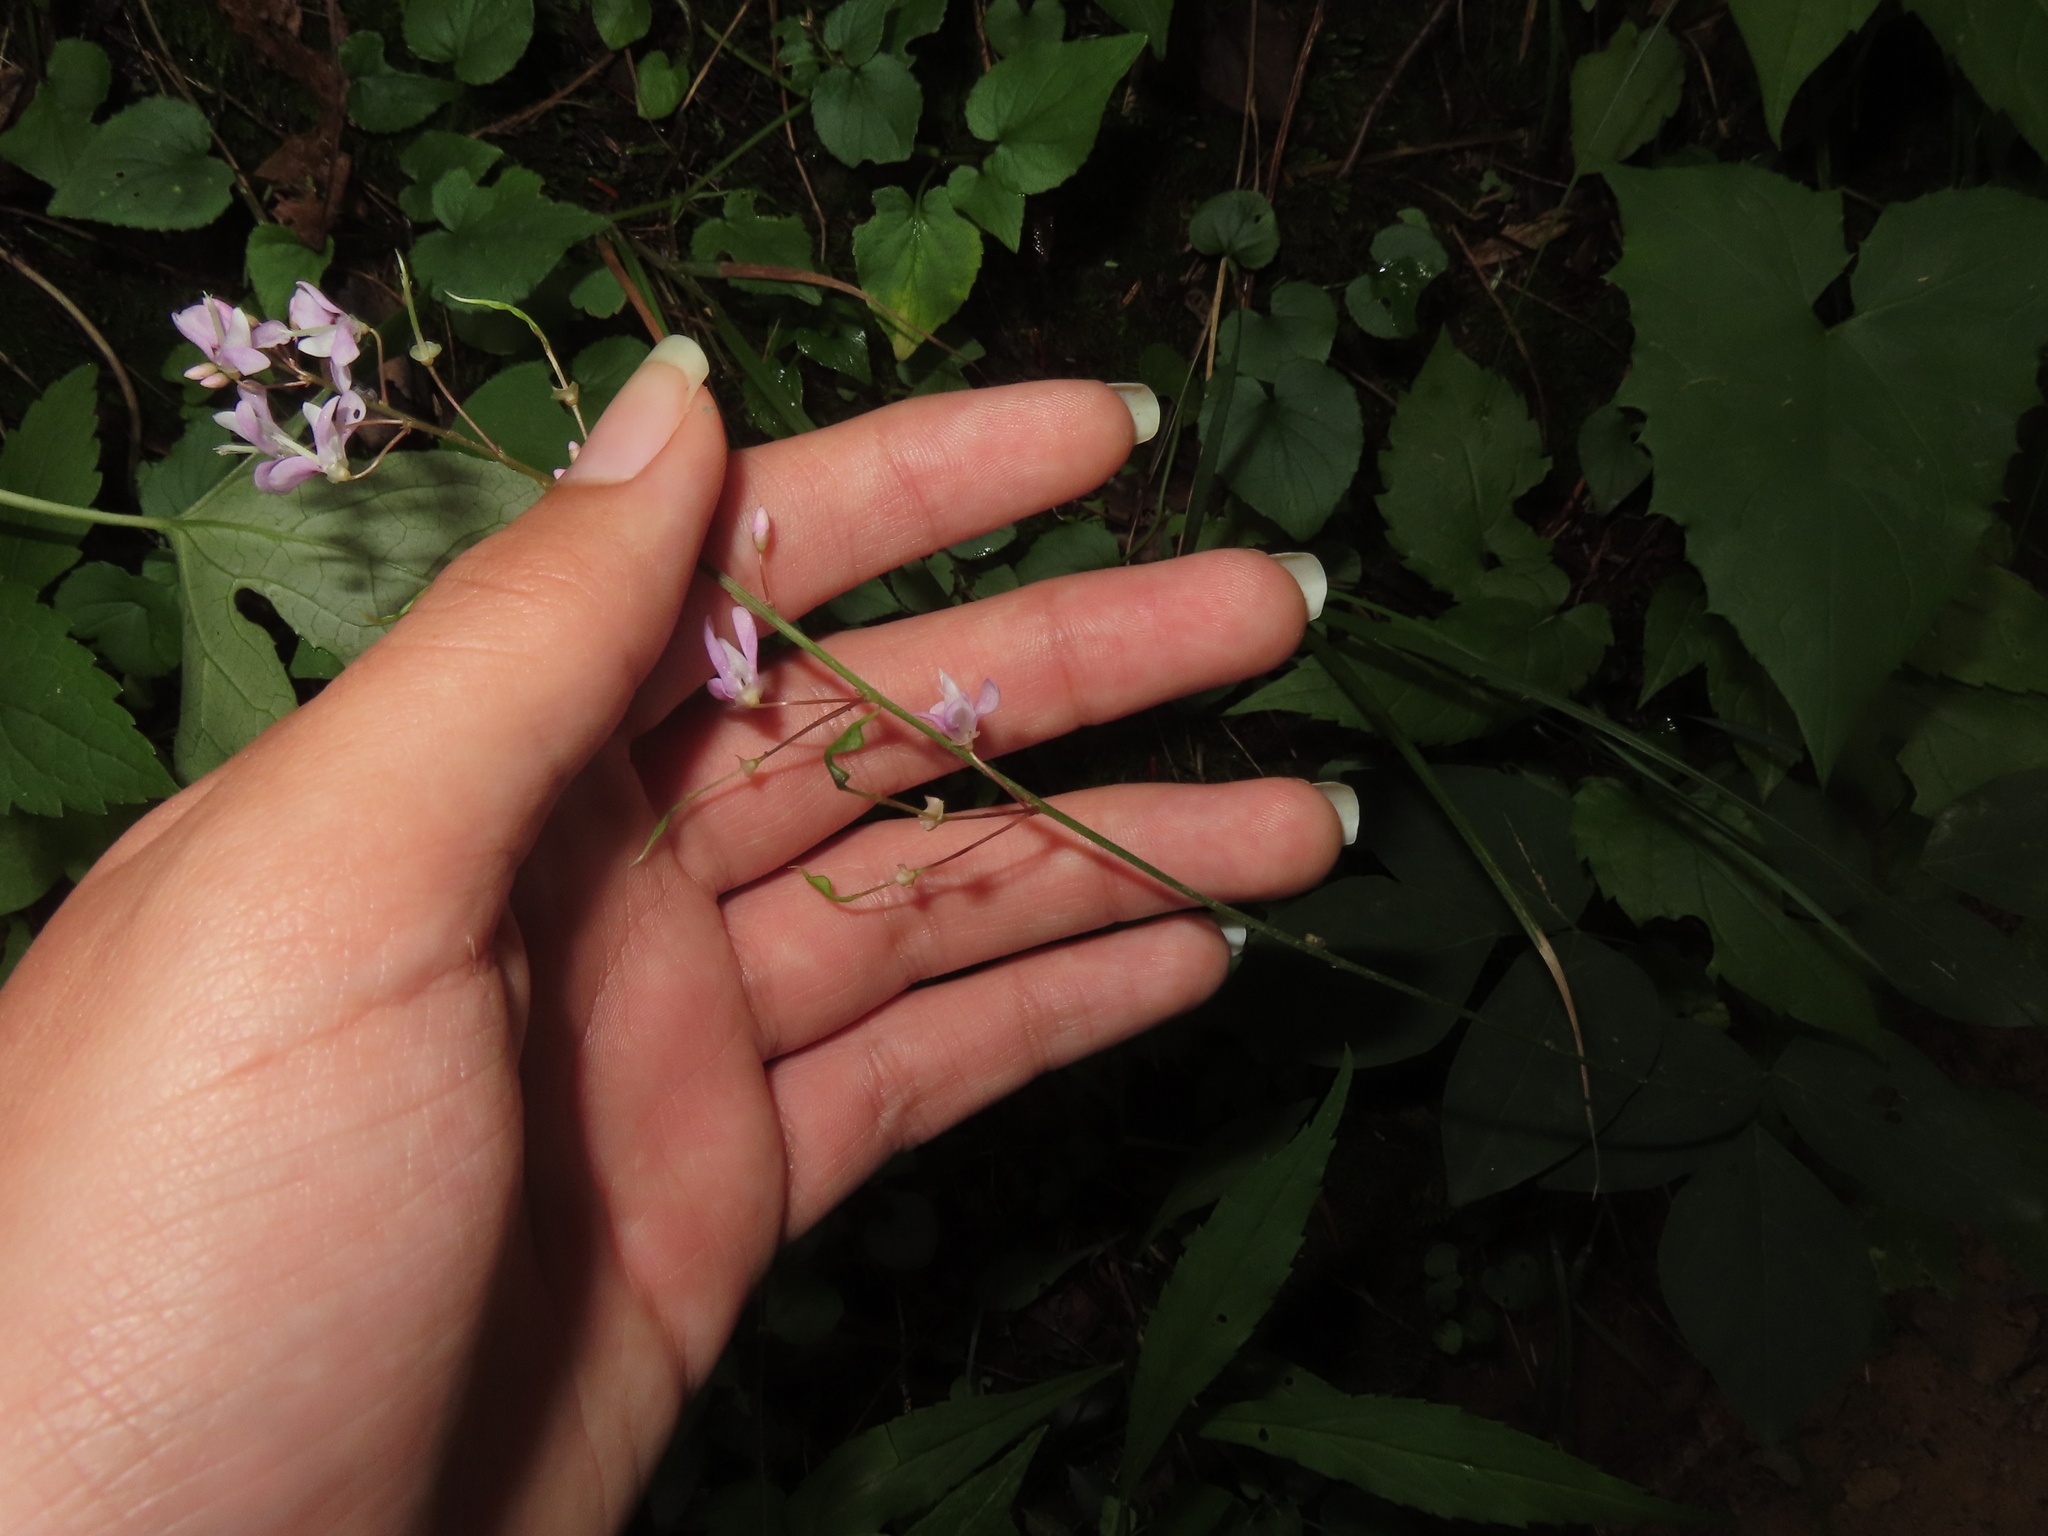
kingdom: Plantae
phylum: Tracheophyta
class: Magnoliopsida
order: Fabales
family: Fabaceae
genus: Hylodesmum
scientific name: Hylodesmum nudiflorum
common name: Bare-stemmed tick-trefoil
